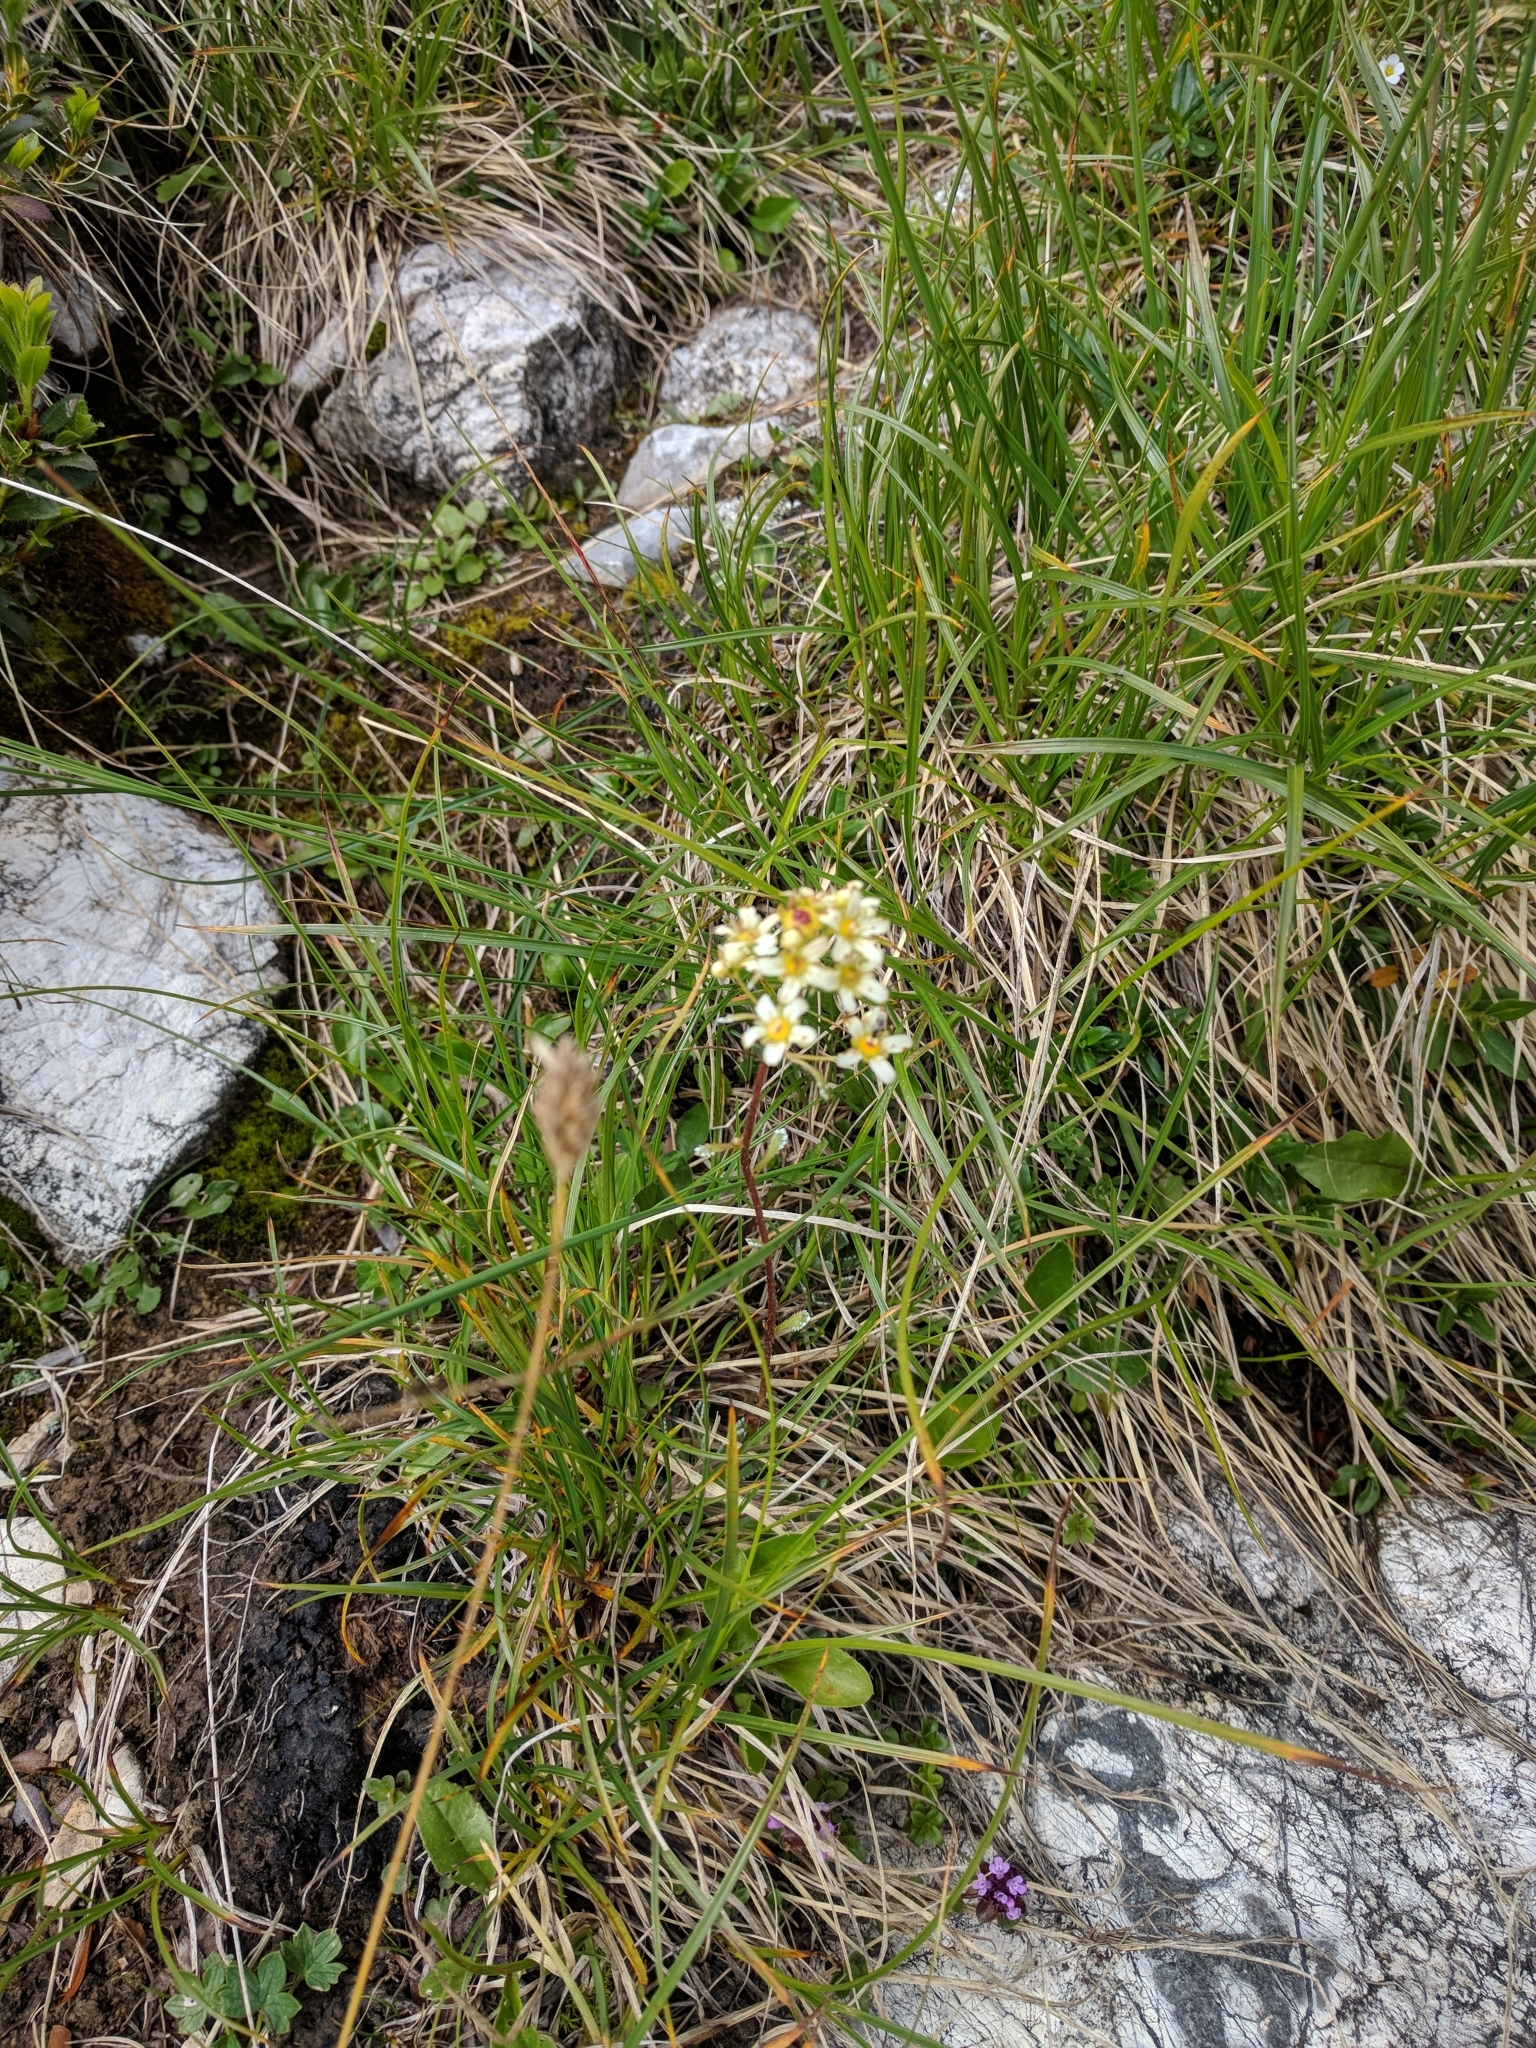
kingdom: Plantae
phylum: Tracheophyta
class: Magnoliopsida
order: Saxifragales
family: Saxifragaceae
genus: Saxifraga
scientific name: Saxifraga paniculata
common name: Livelong saxifrage
